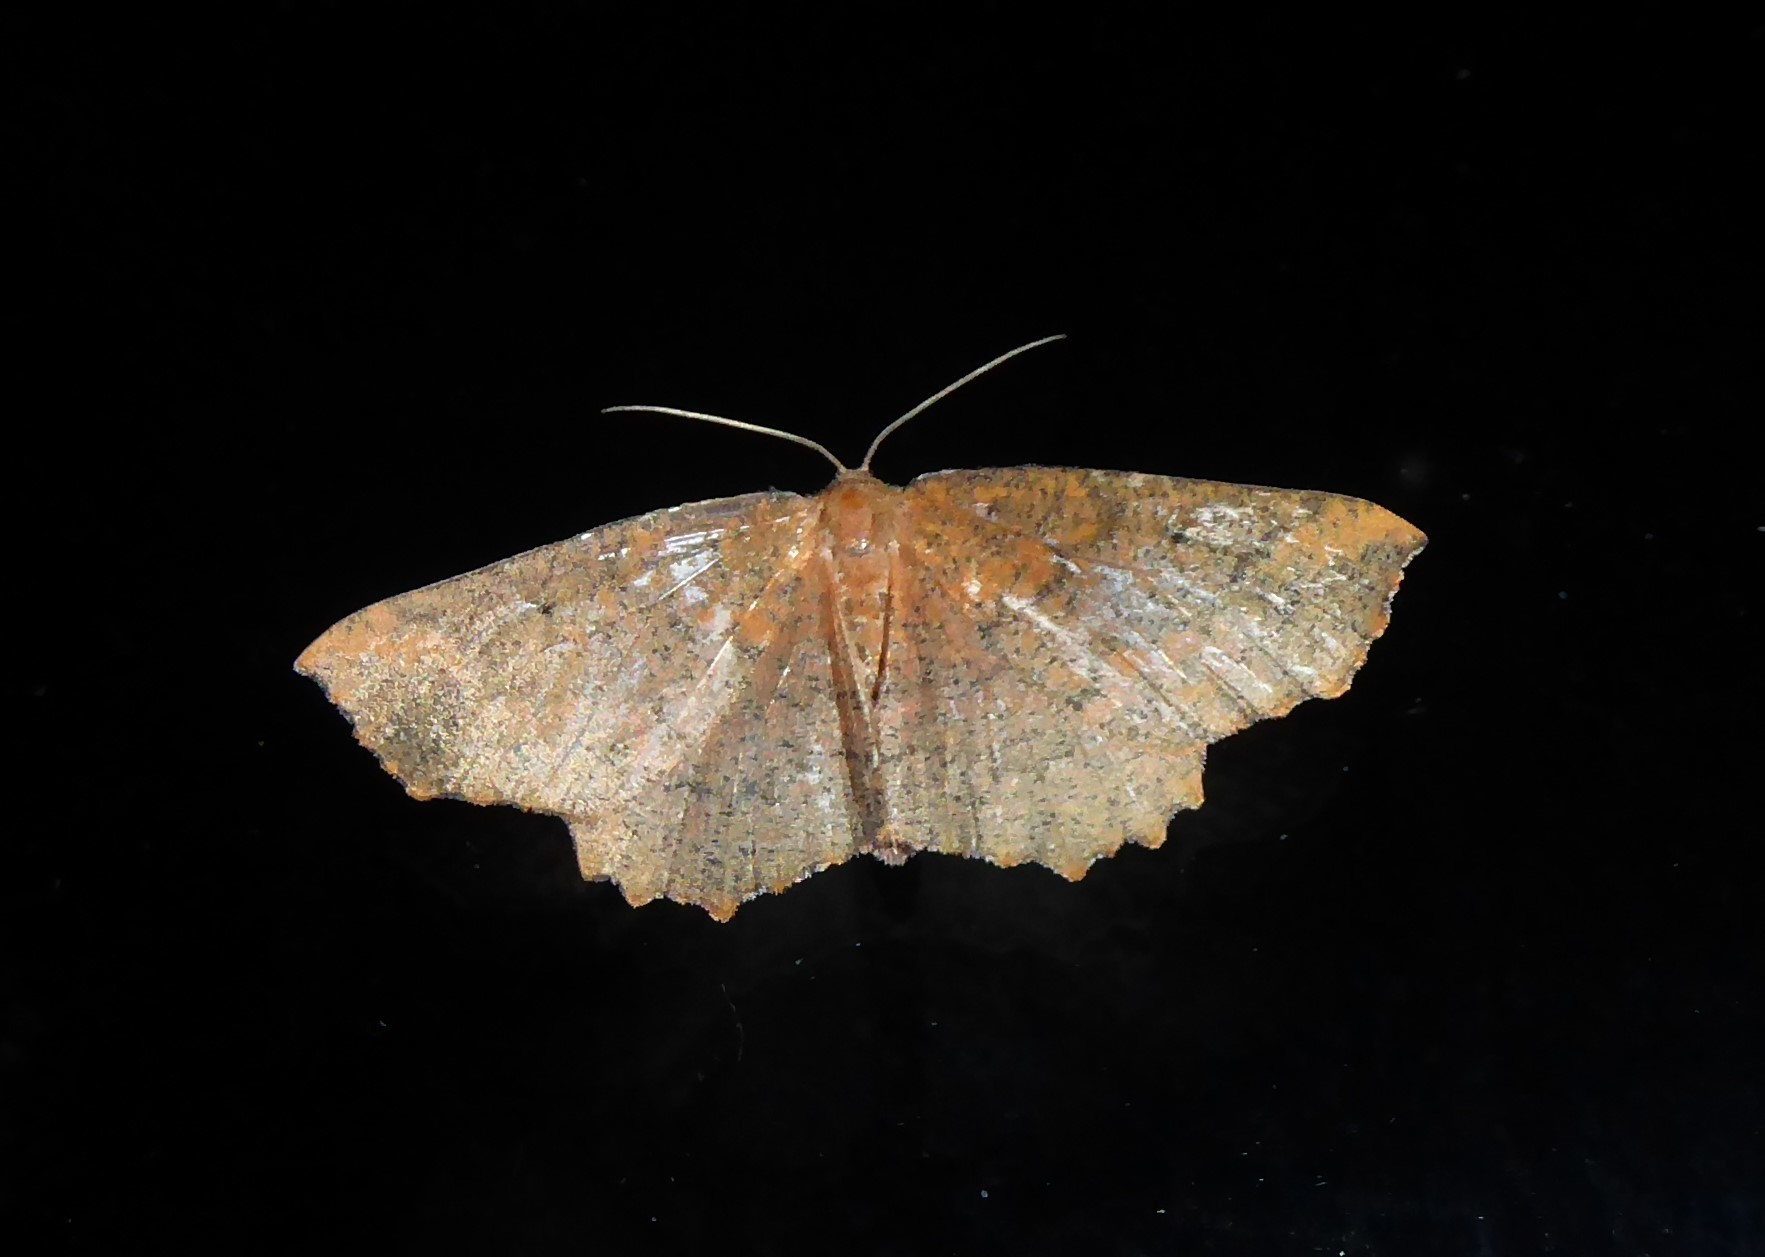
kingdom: Animalia
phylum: Arthropoda
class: Insecta
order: Lepidoptera
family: Geometridae
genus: Xyridacma
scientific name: Xyridacma ustaria
